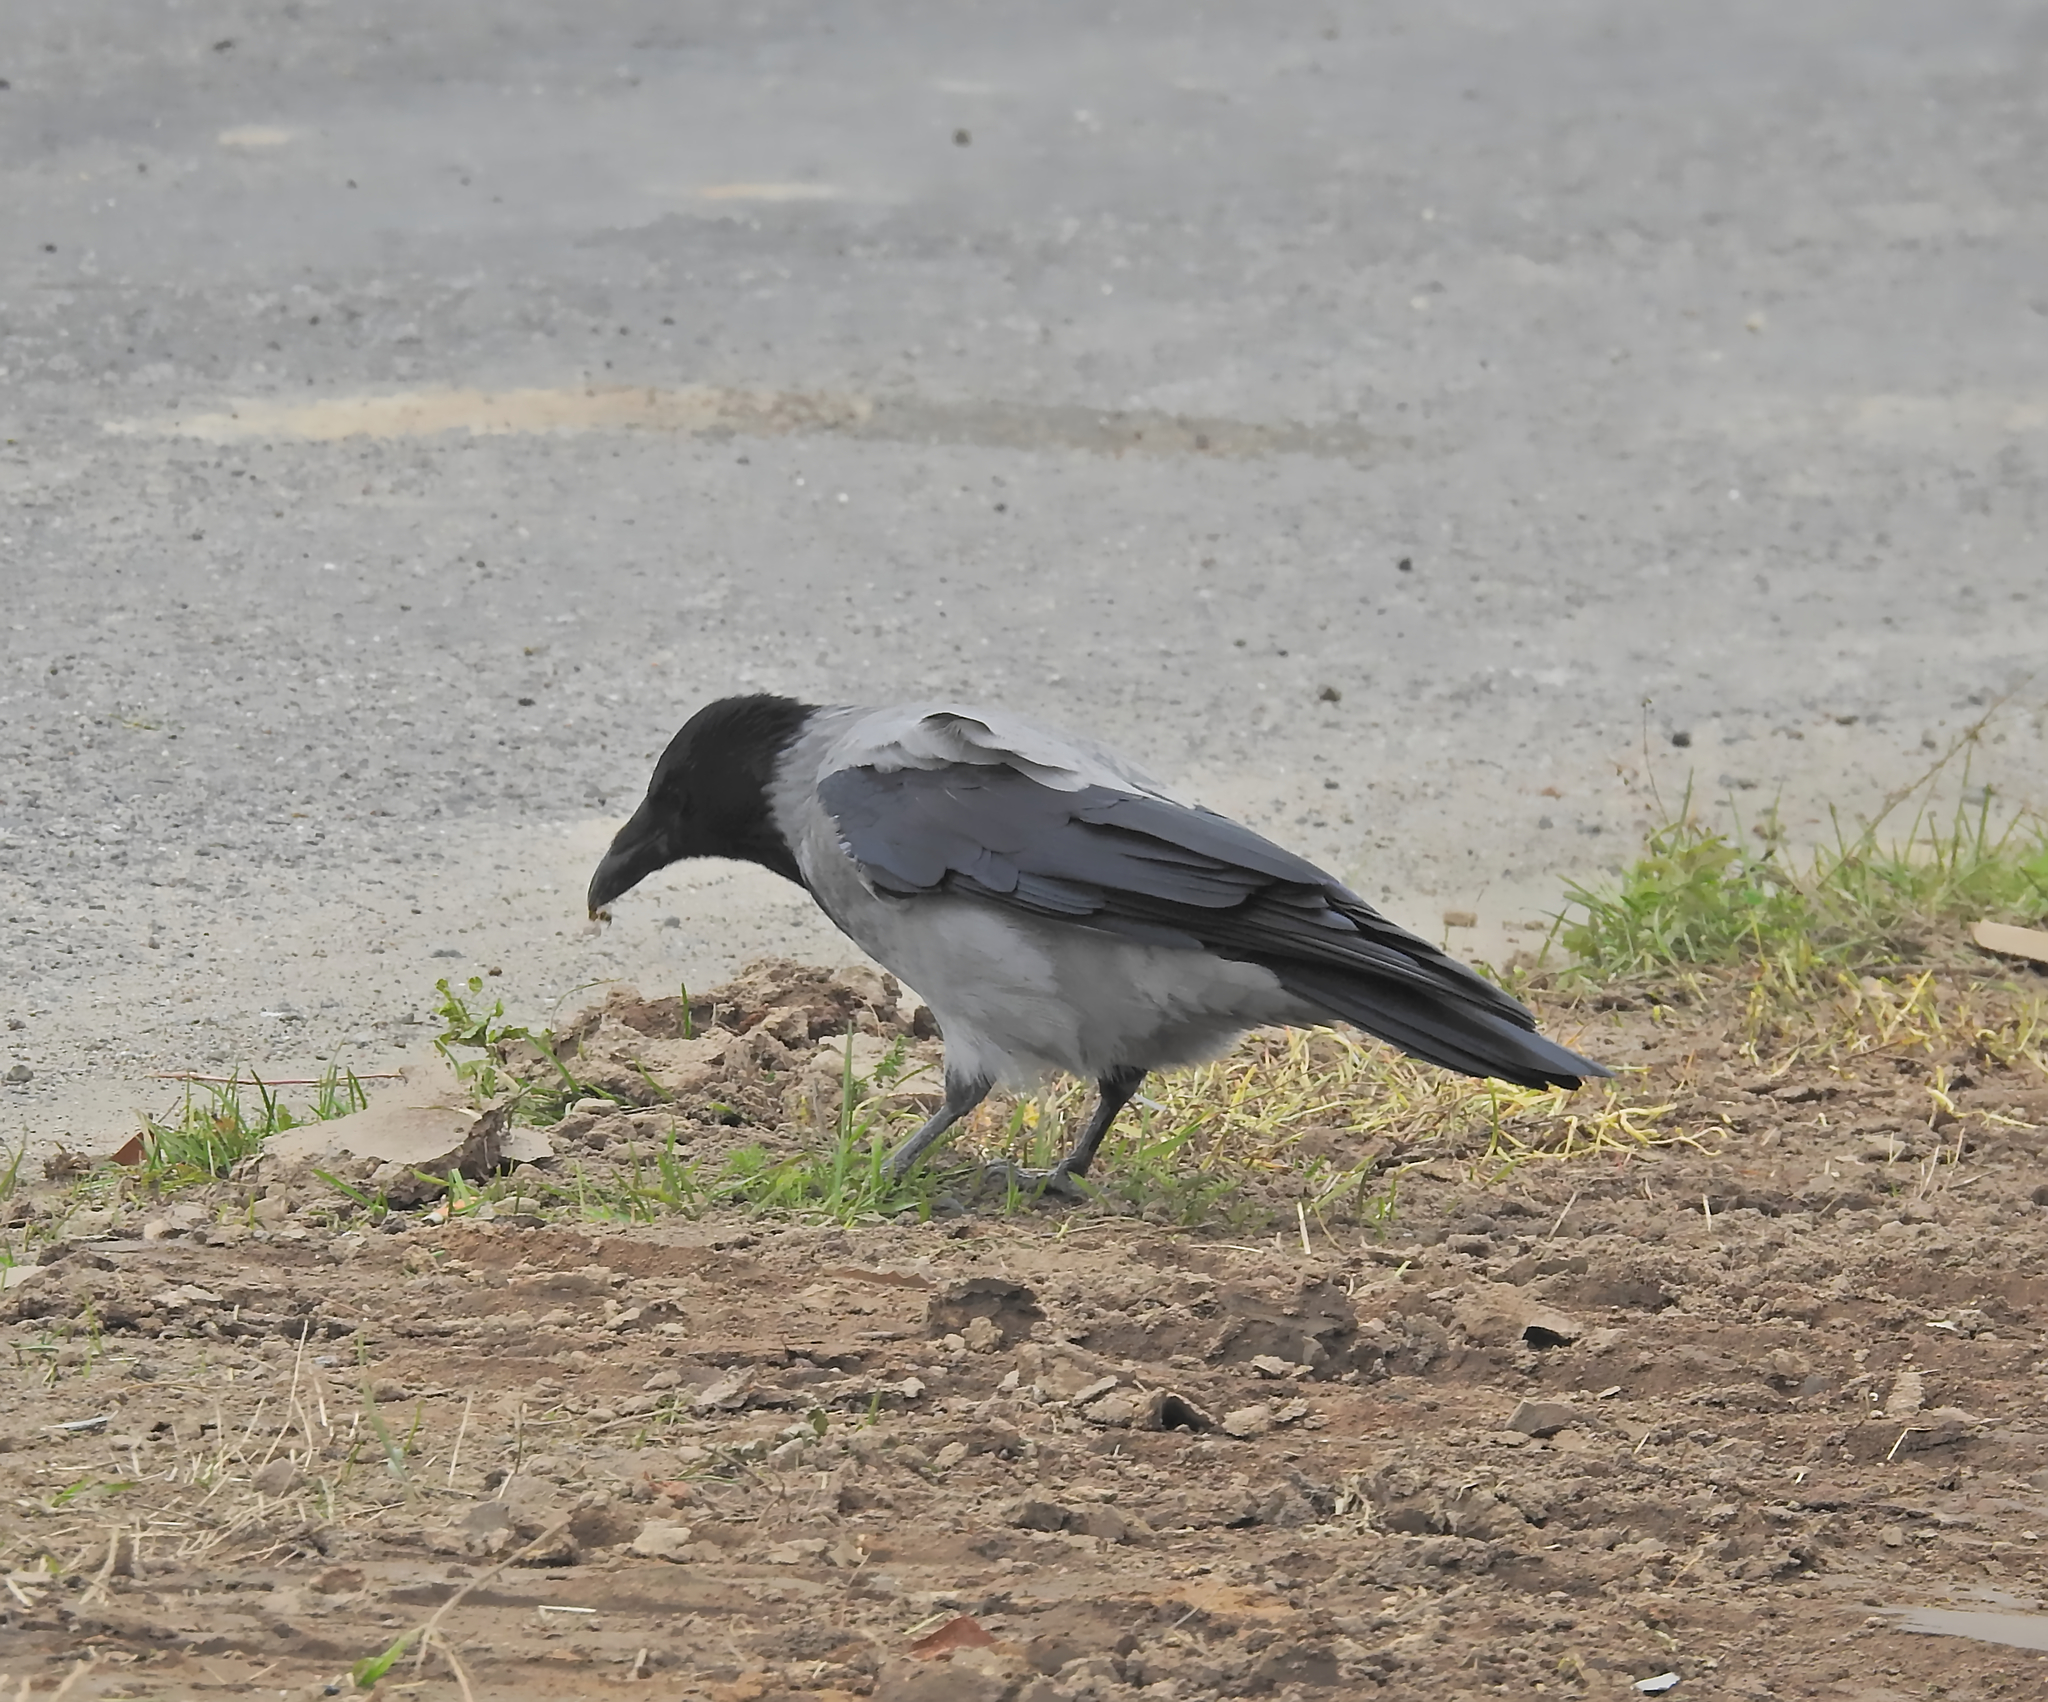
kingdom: Animalia
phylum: Chordata
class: Aves
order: Passeriformes
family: Corvidae
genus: Corvus
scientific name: Corvus cornix
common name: Hooded crow
